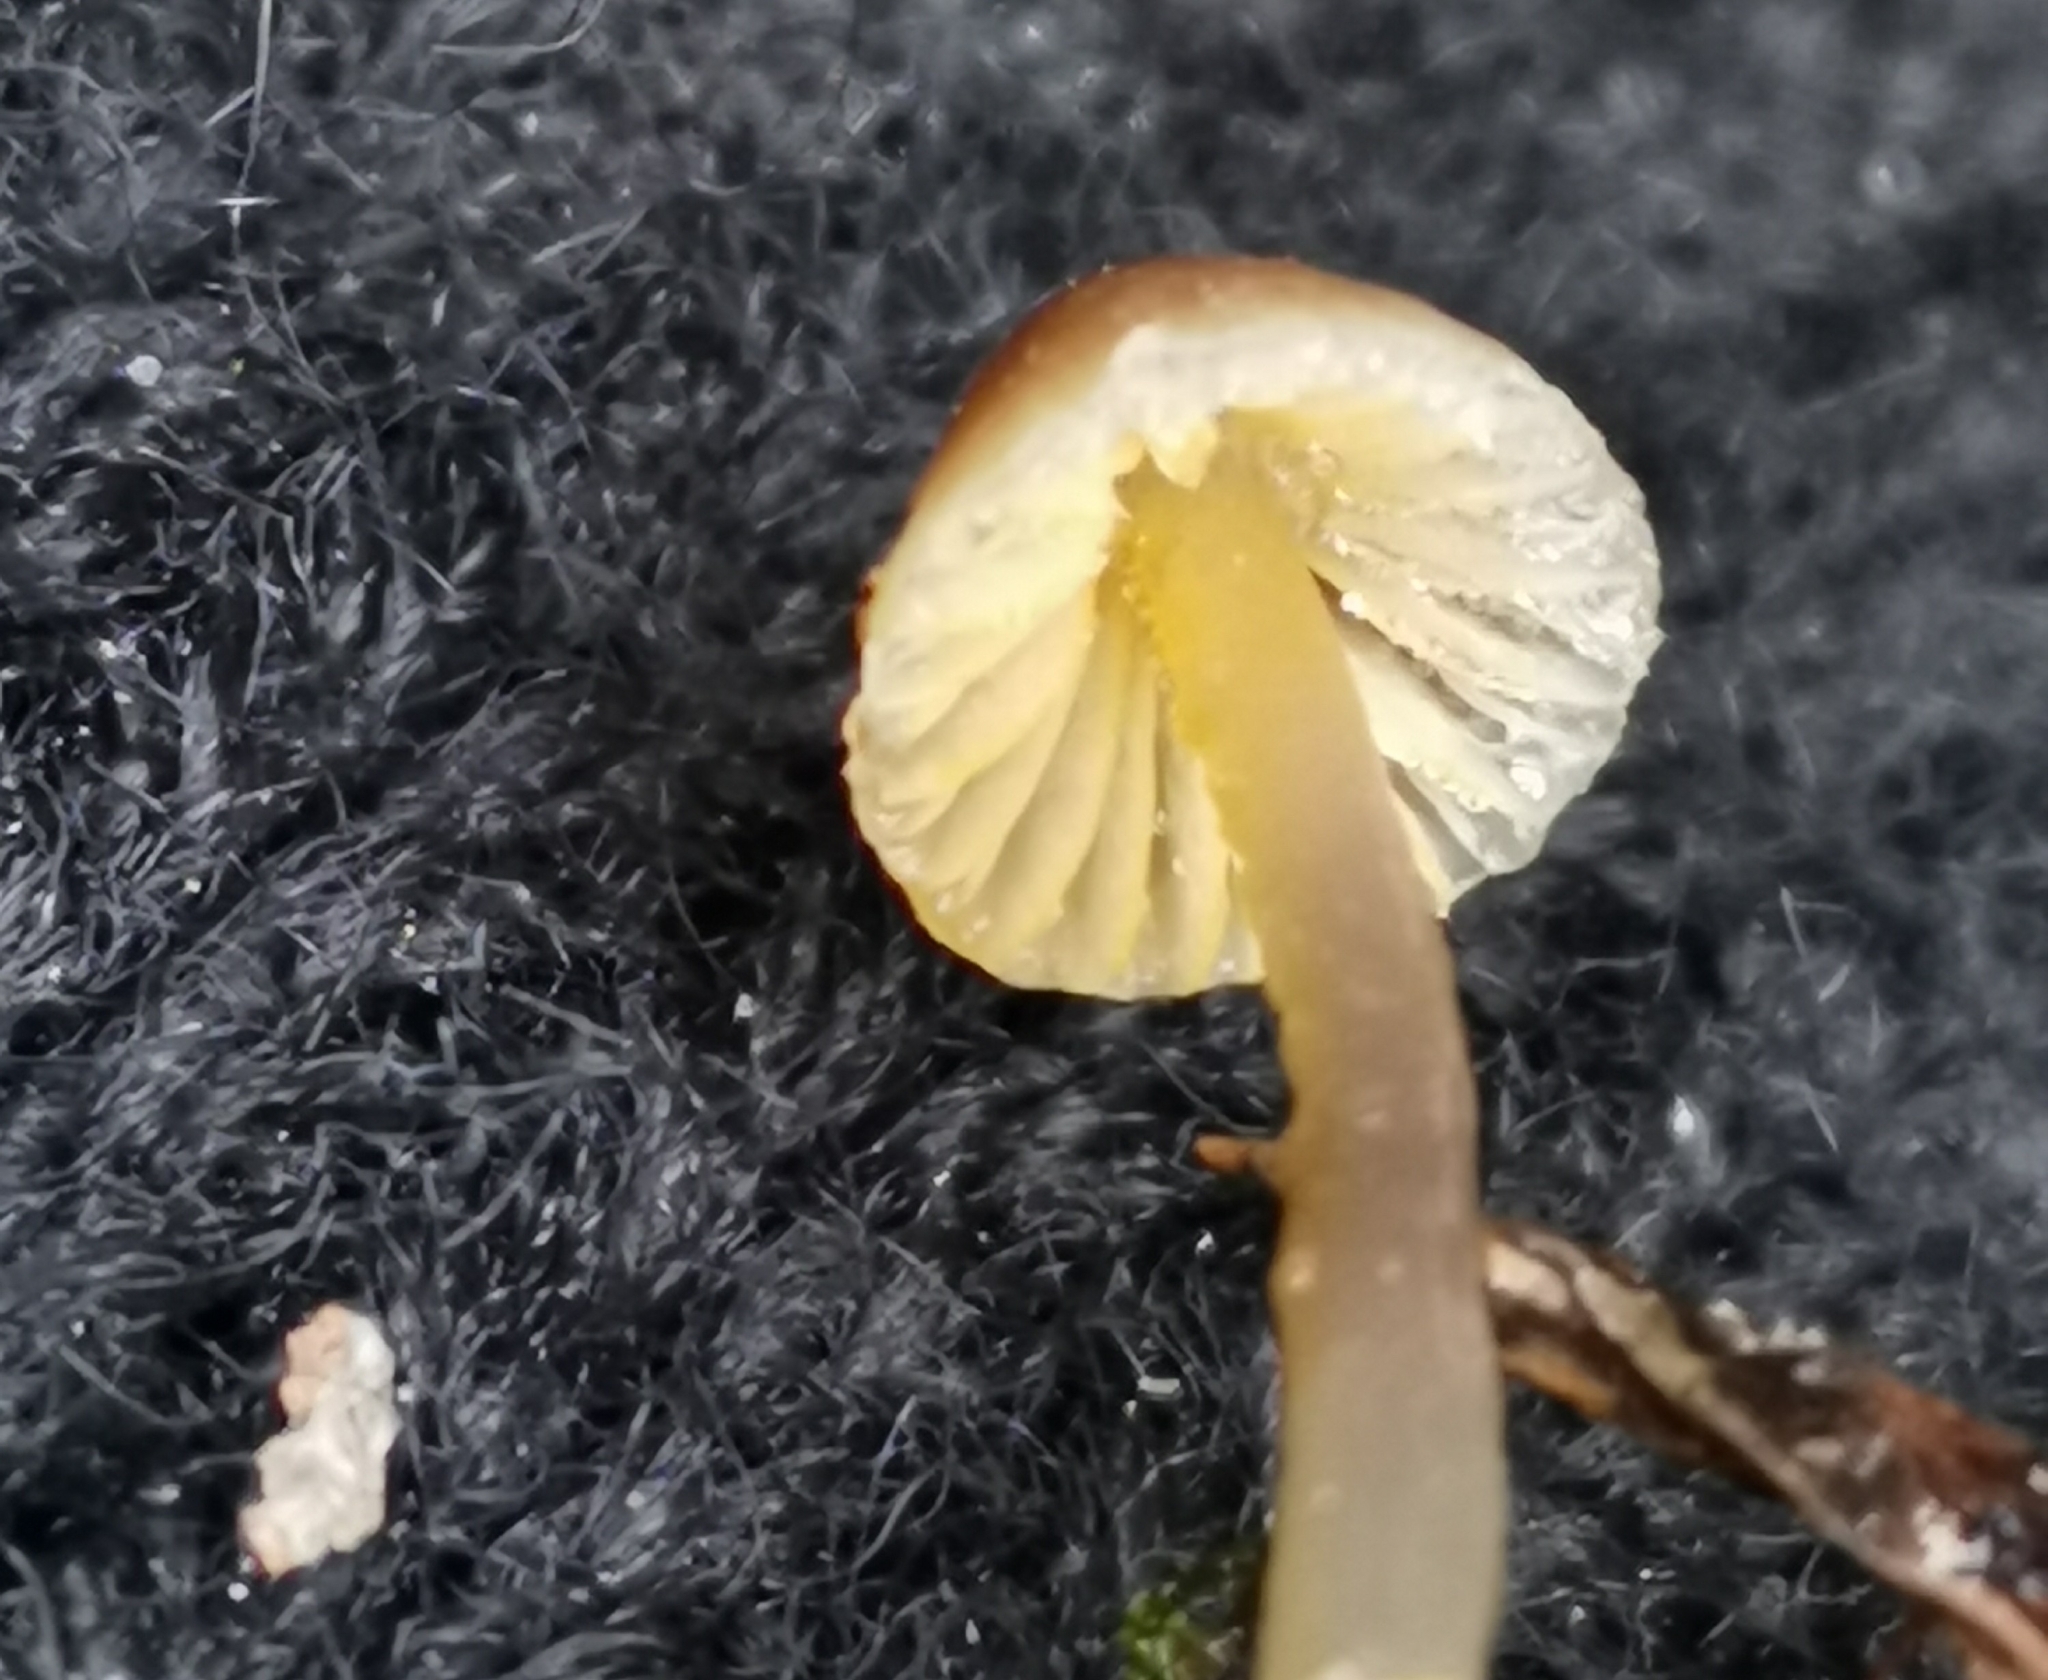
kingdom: Fungi
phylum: Basidiomycota
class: Agaricomycetes
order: Agaricales
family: Mycenaceae
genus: Mycena
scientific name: Mycena metata
